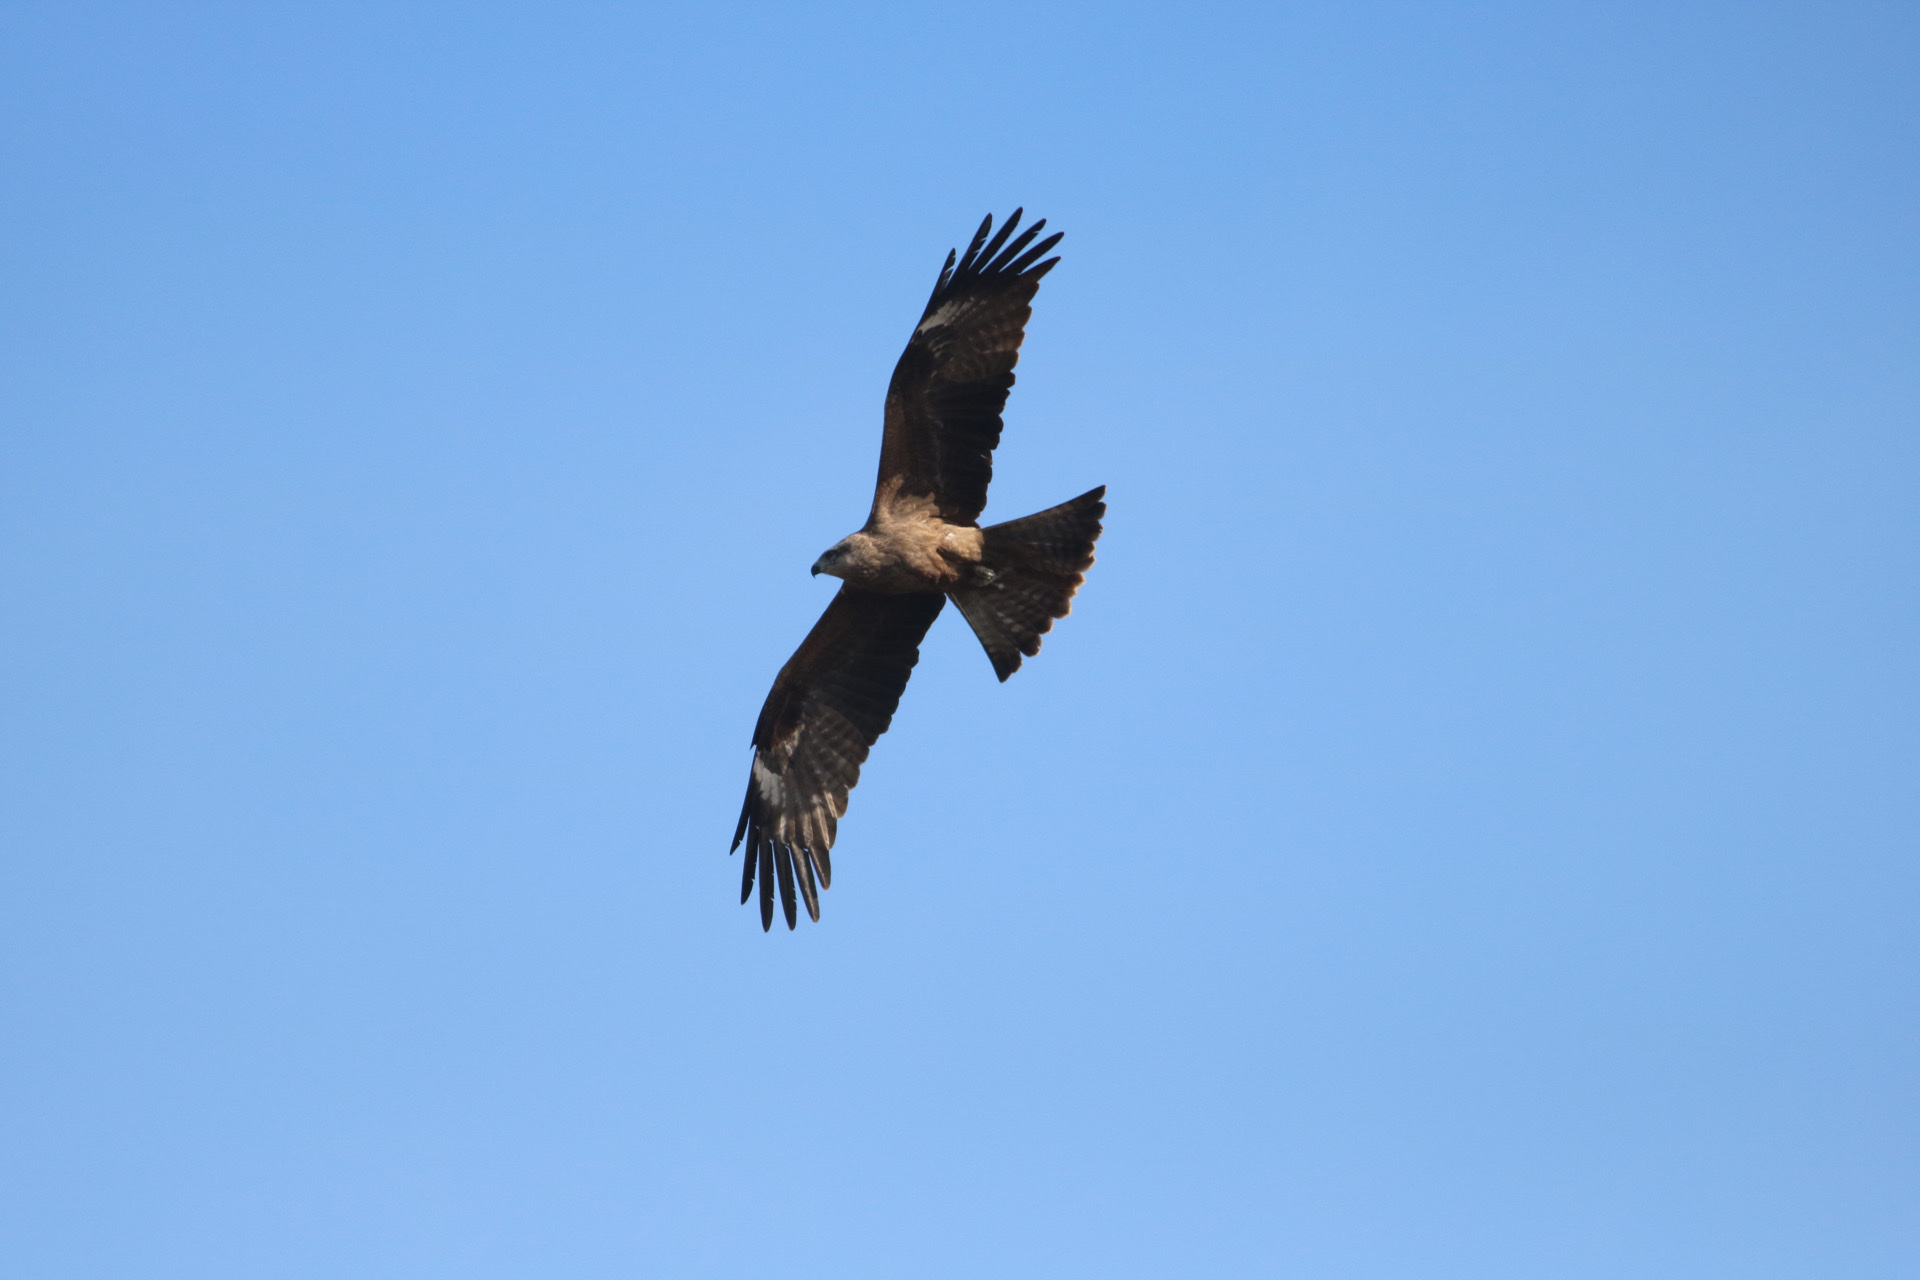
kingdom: Animalia
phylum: Chordata
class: Aves
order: Accipitriformes
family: Accipitridae
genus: Milvus
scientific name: Milvus migrans
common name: Black kite
